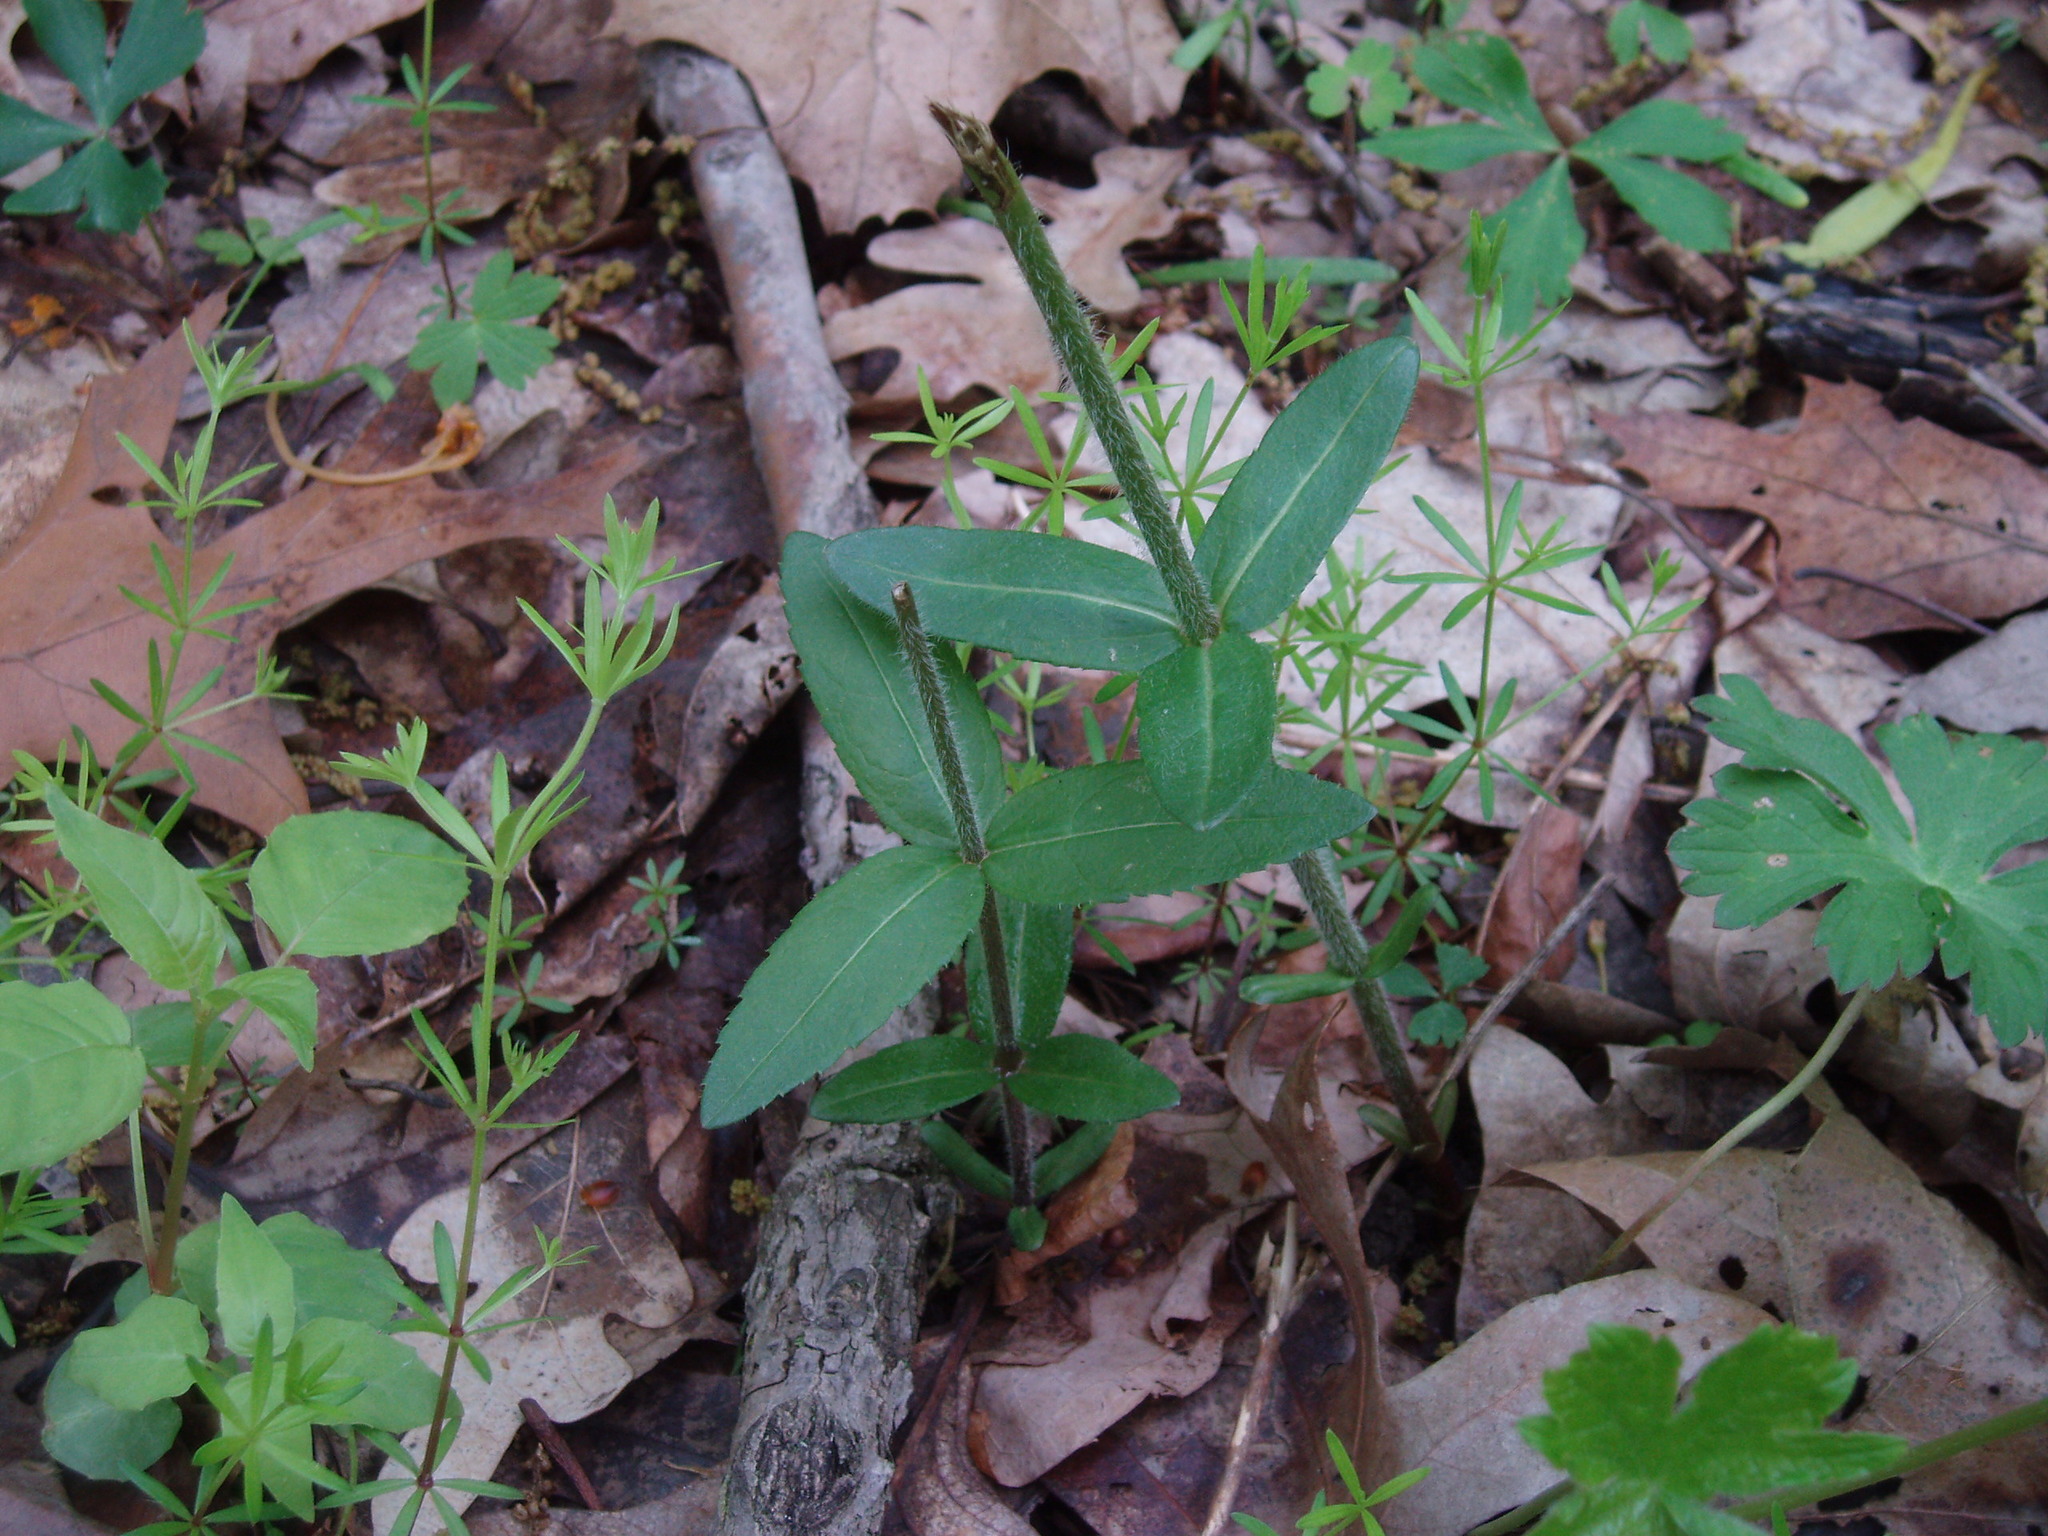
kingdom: Plantae
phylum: Tracheophyta
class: Magnoliopsida
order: Ericales
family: Primulaceae
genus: Lysimachia
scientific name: Lysimachia quadrifolia
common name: Whorled loosestrife
